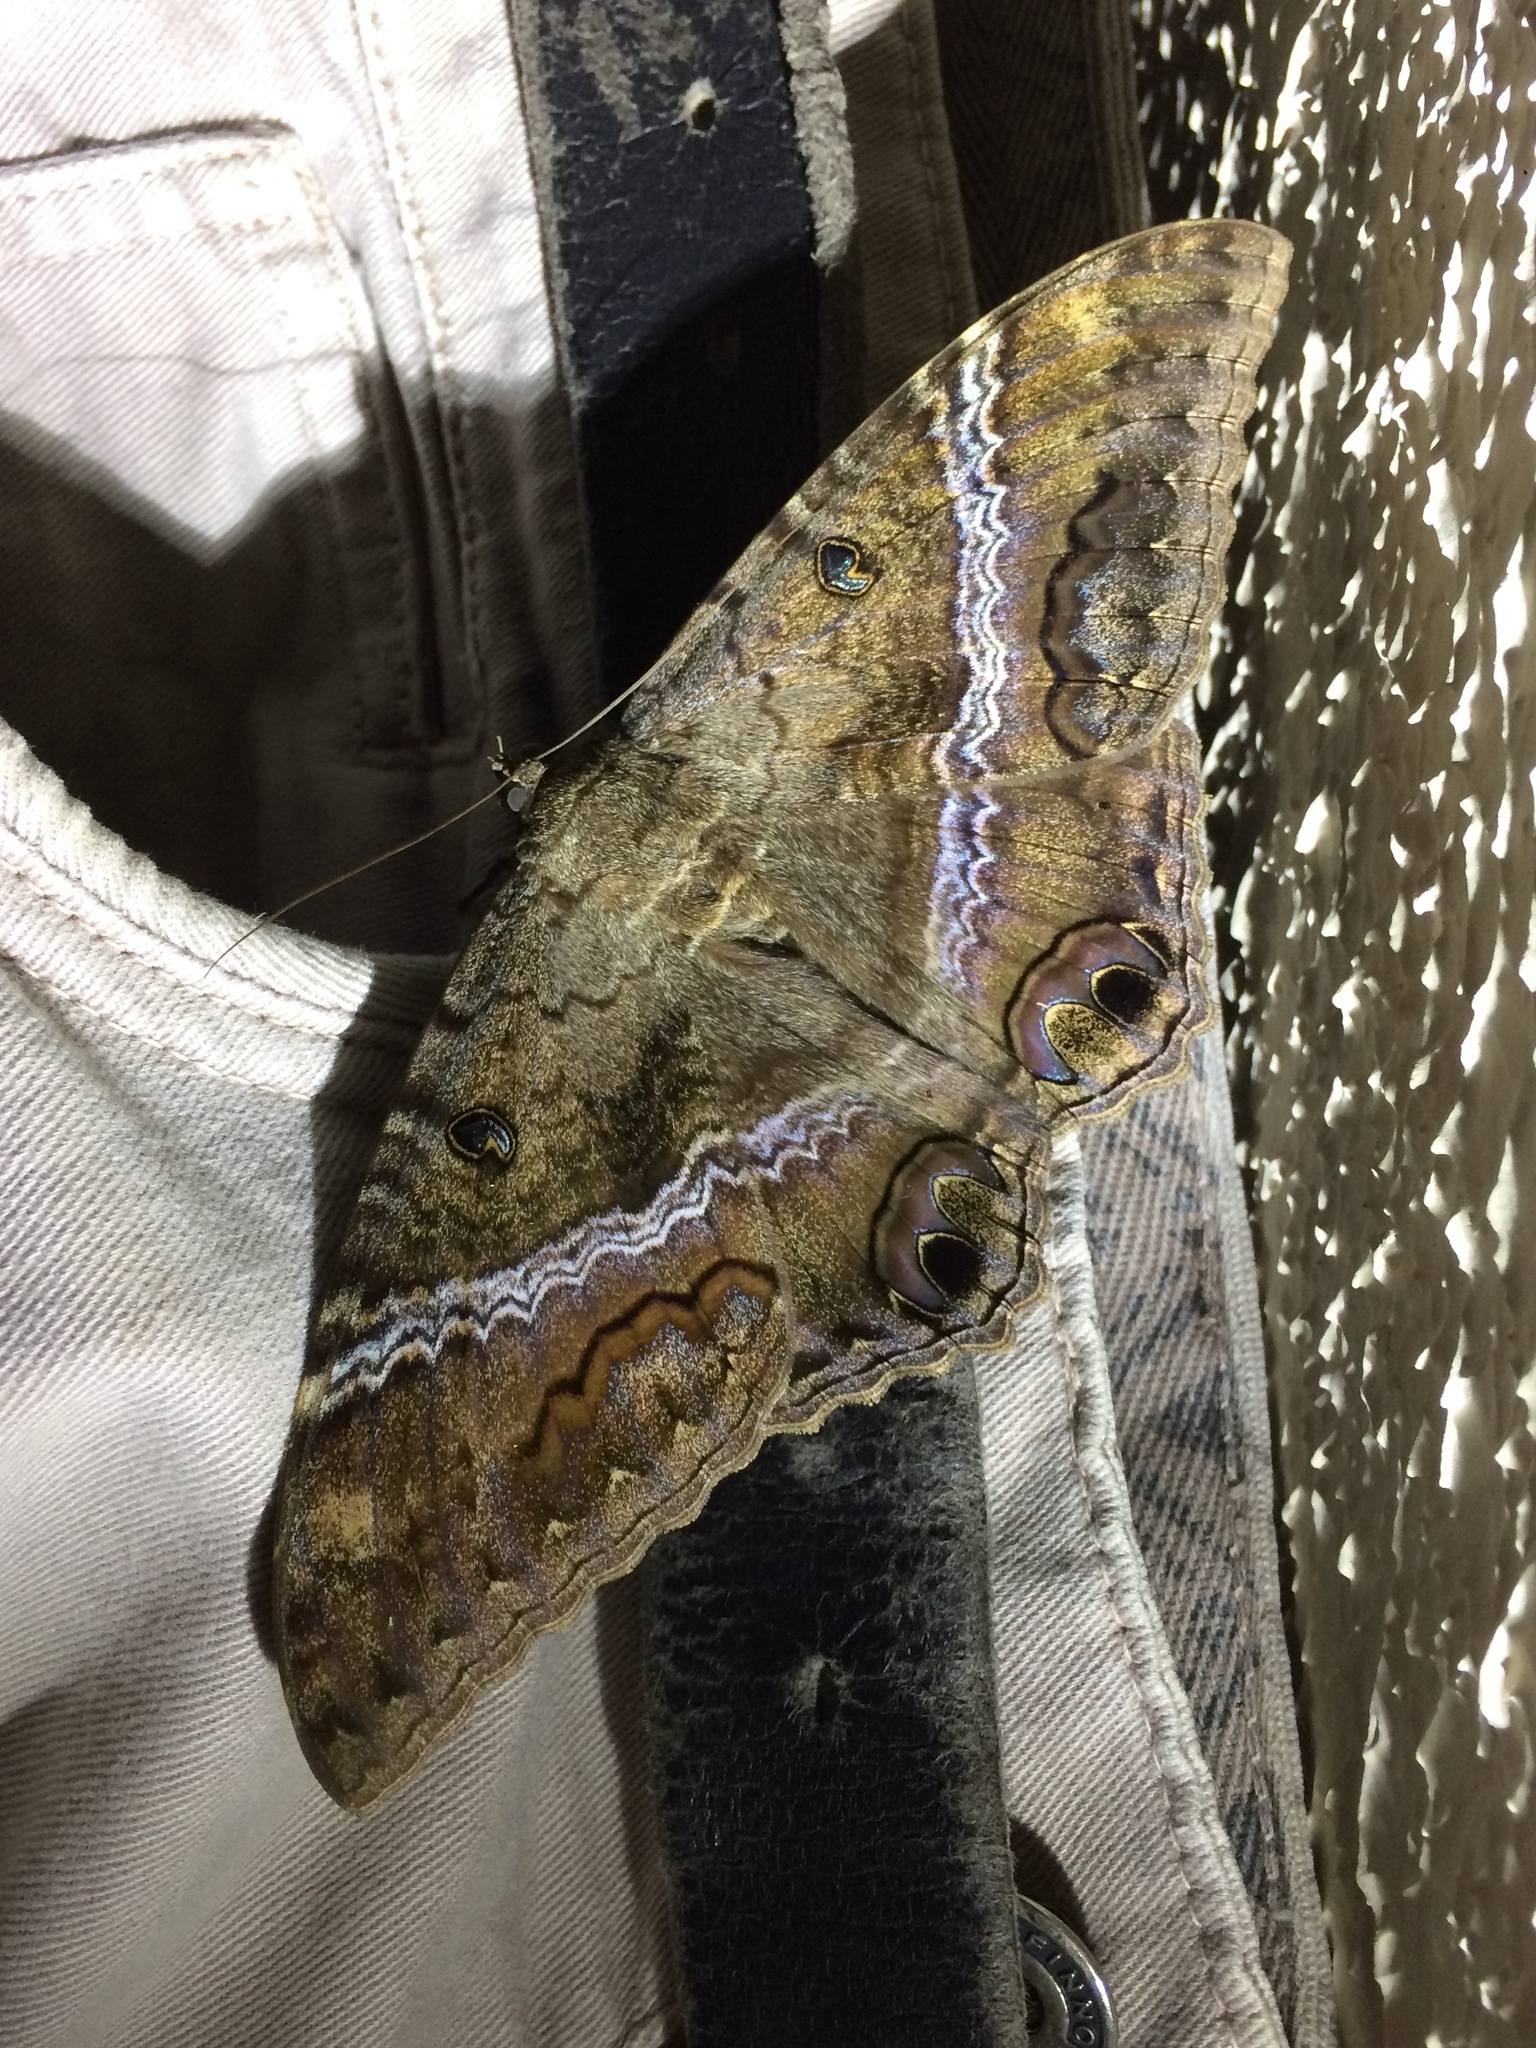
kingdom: Animalia
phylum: Arthropoda
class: Insecta
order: Lepidoptera
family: Erebidae
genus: Ascalapha
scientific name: Ascalapha odorata
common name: Black witch
